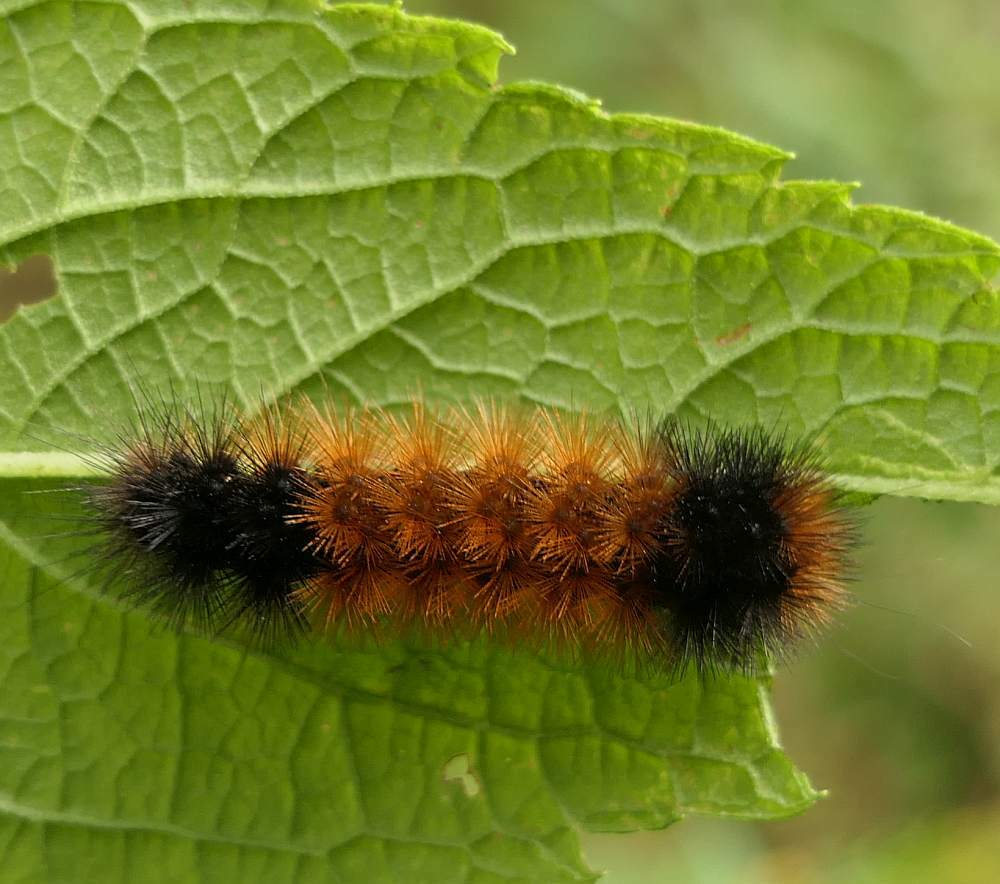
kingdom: Animalia
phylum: Arthropoda
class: Insecta
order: Lepidoptera
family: Erebidae
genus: Pyrrharctia
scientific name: Pyrrharctia isabella
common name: Isabella tiger moth
